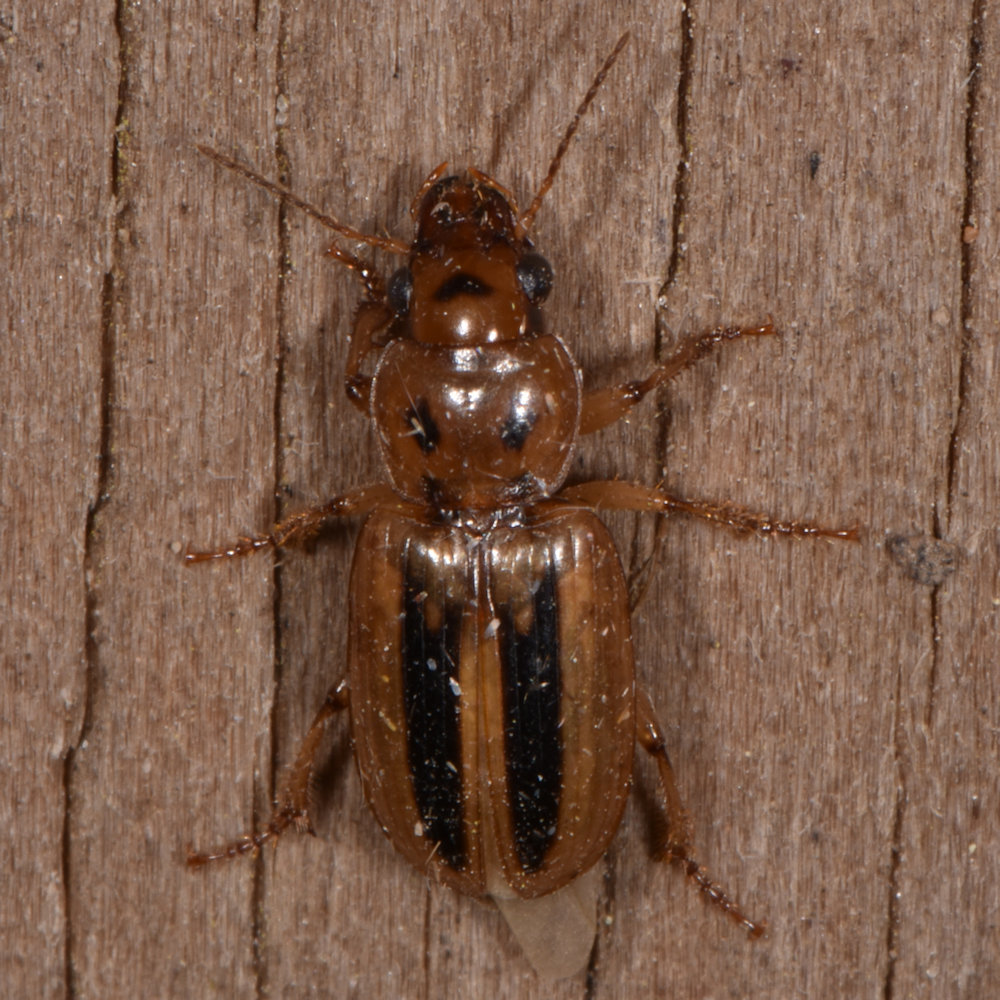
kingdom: Animalia
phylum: Arthropoda
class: Insecta
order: Coleoptera
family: Carabidae
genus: Stenolophus
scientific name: Stenolophus lineola
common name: Lined stenolophus
